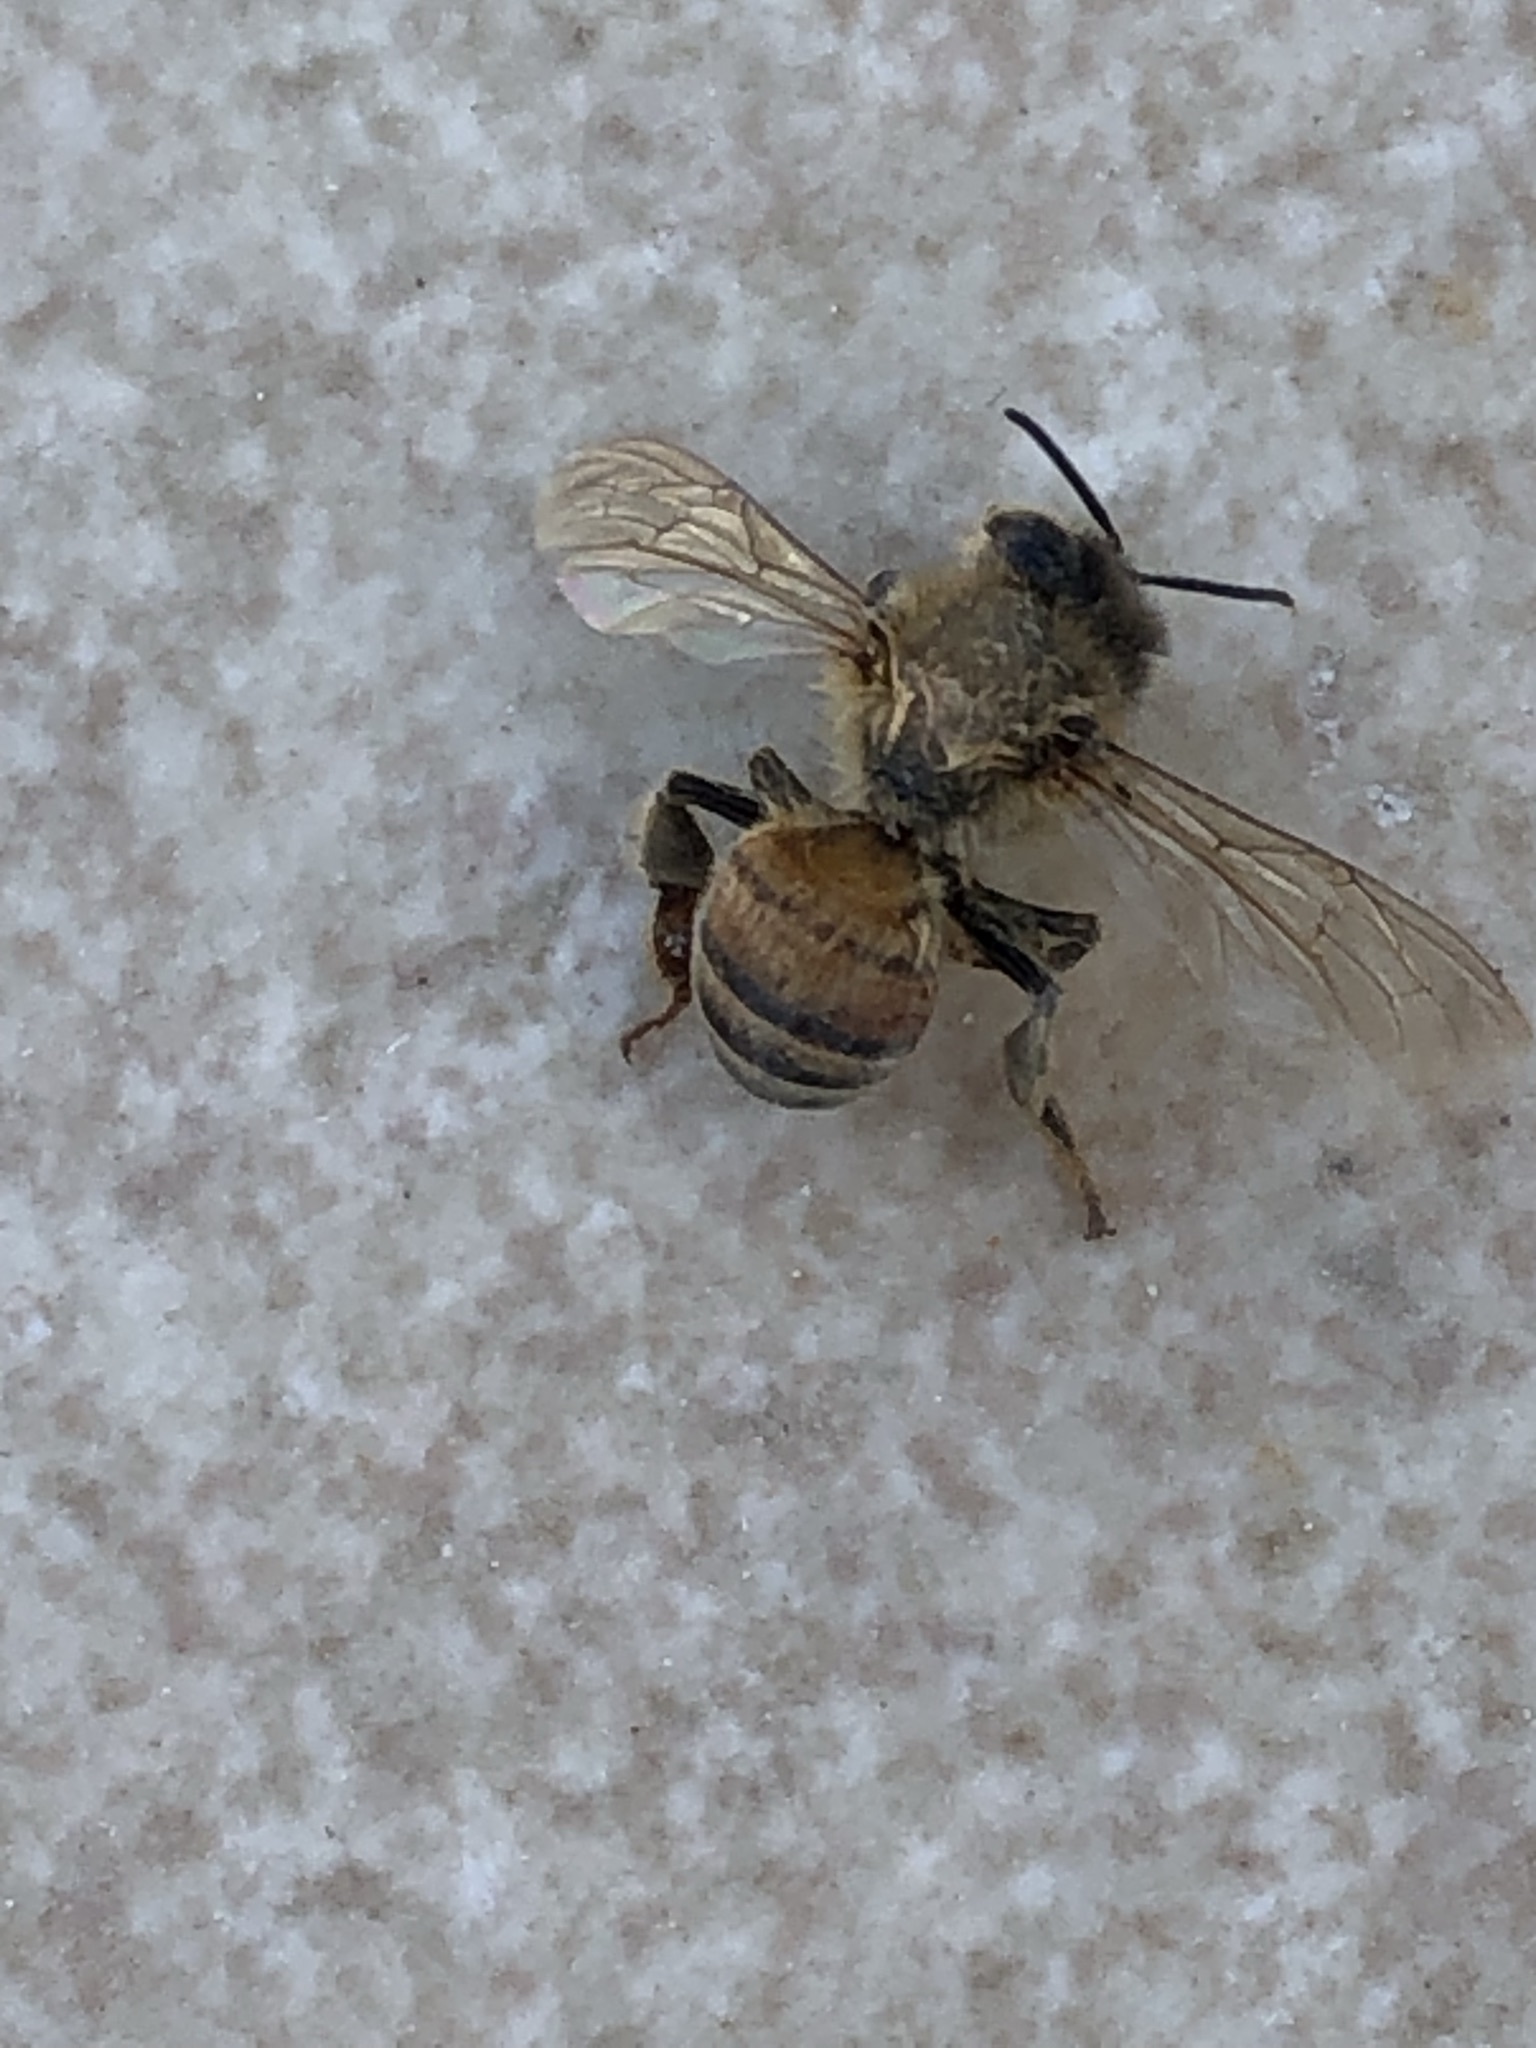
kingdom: Animalia
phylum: Arthropoda
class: Insecta
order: Hymenoptera
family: Apidae
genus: Apis
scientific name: Apis mellifera
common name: Honey bee
